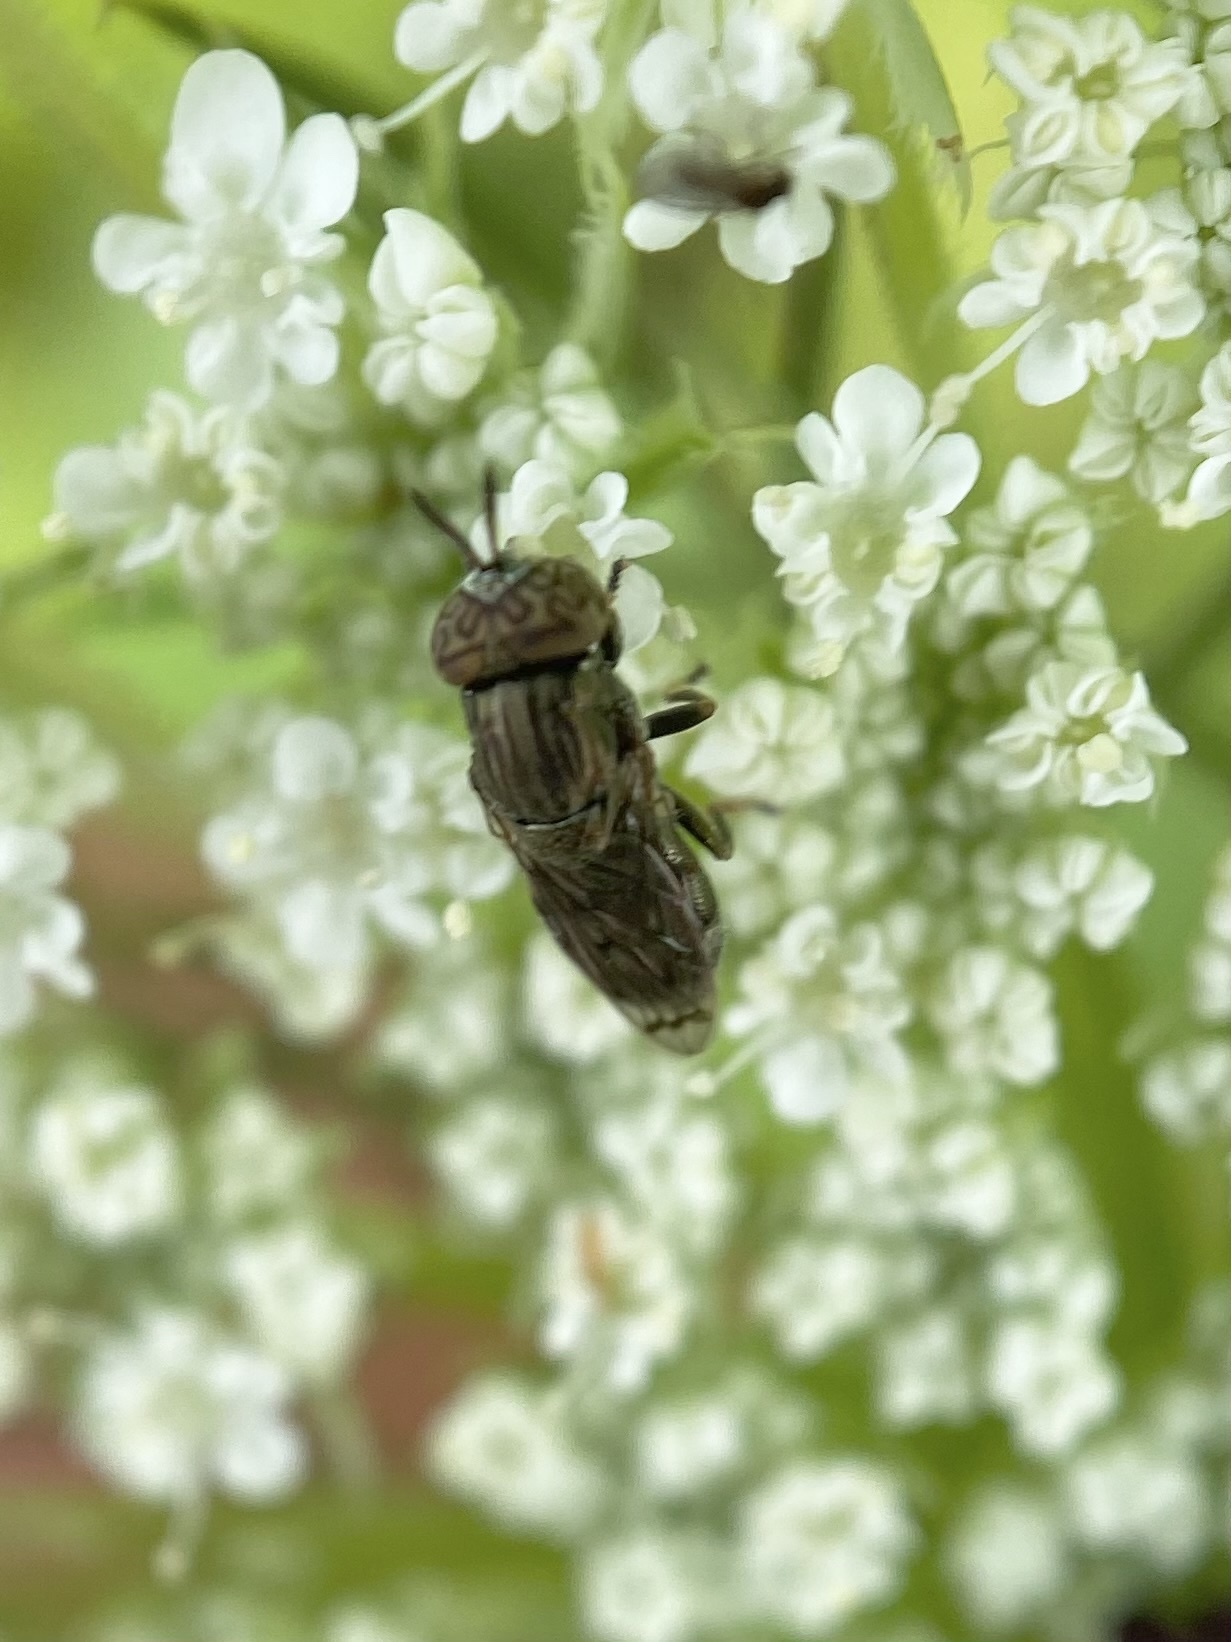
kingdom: Animalia
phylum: Arthropoda
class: Insecta
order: Diptera
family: Syrphidae
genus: Orthonevra
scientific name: Orthonevra nitida
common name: Wavy mucksucker
